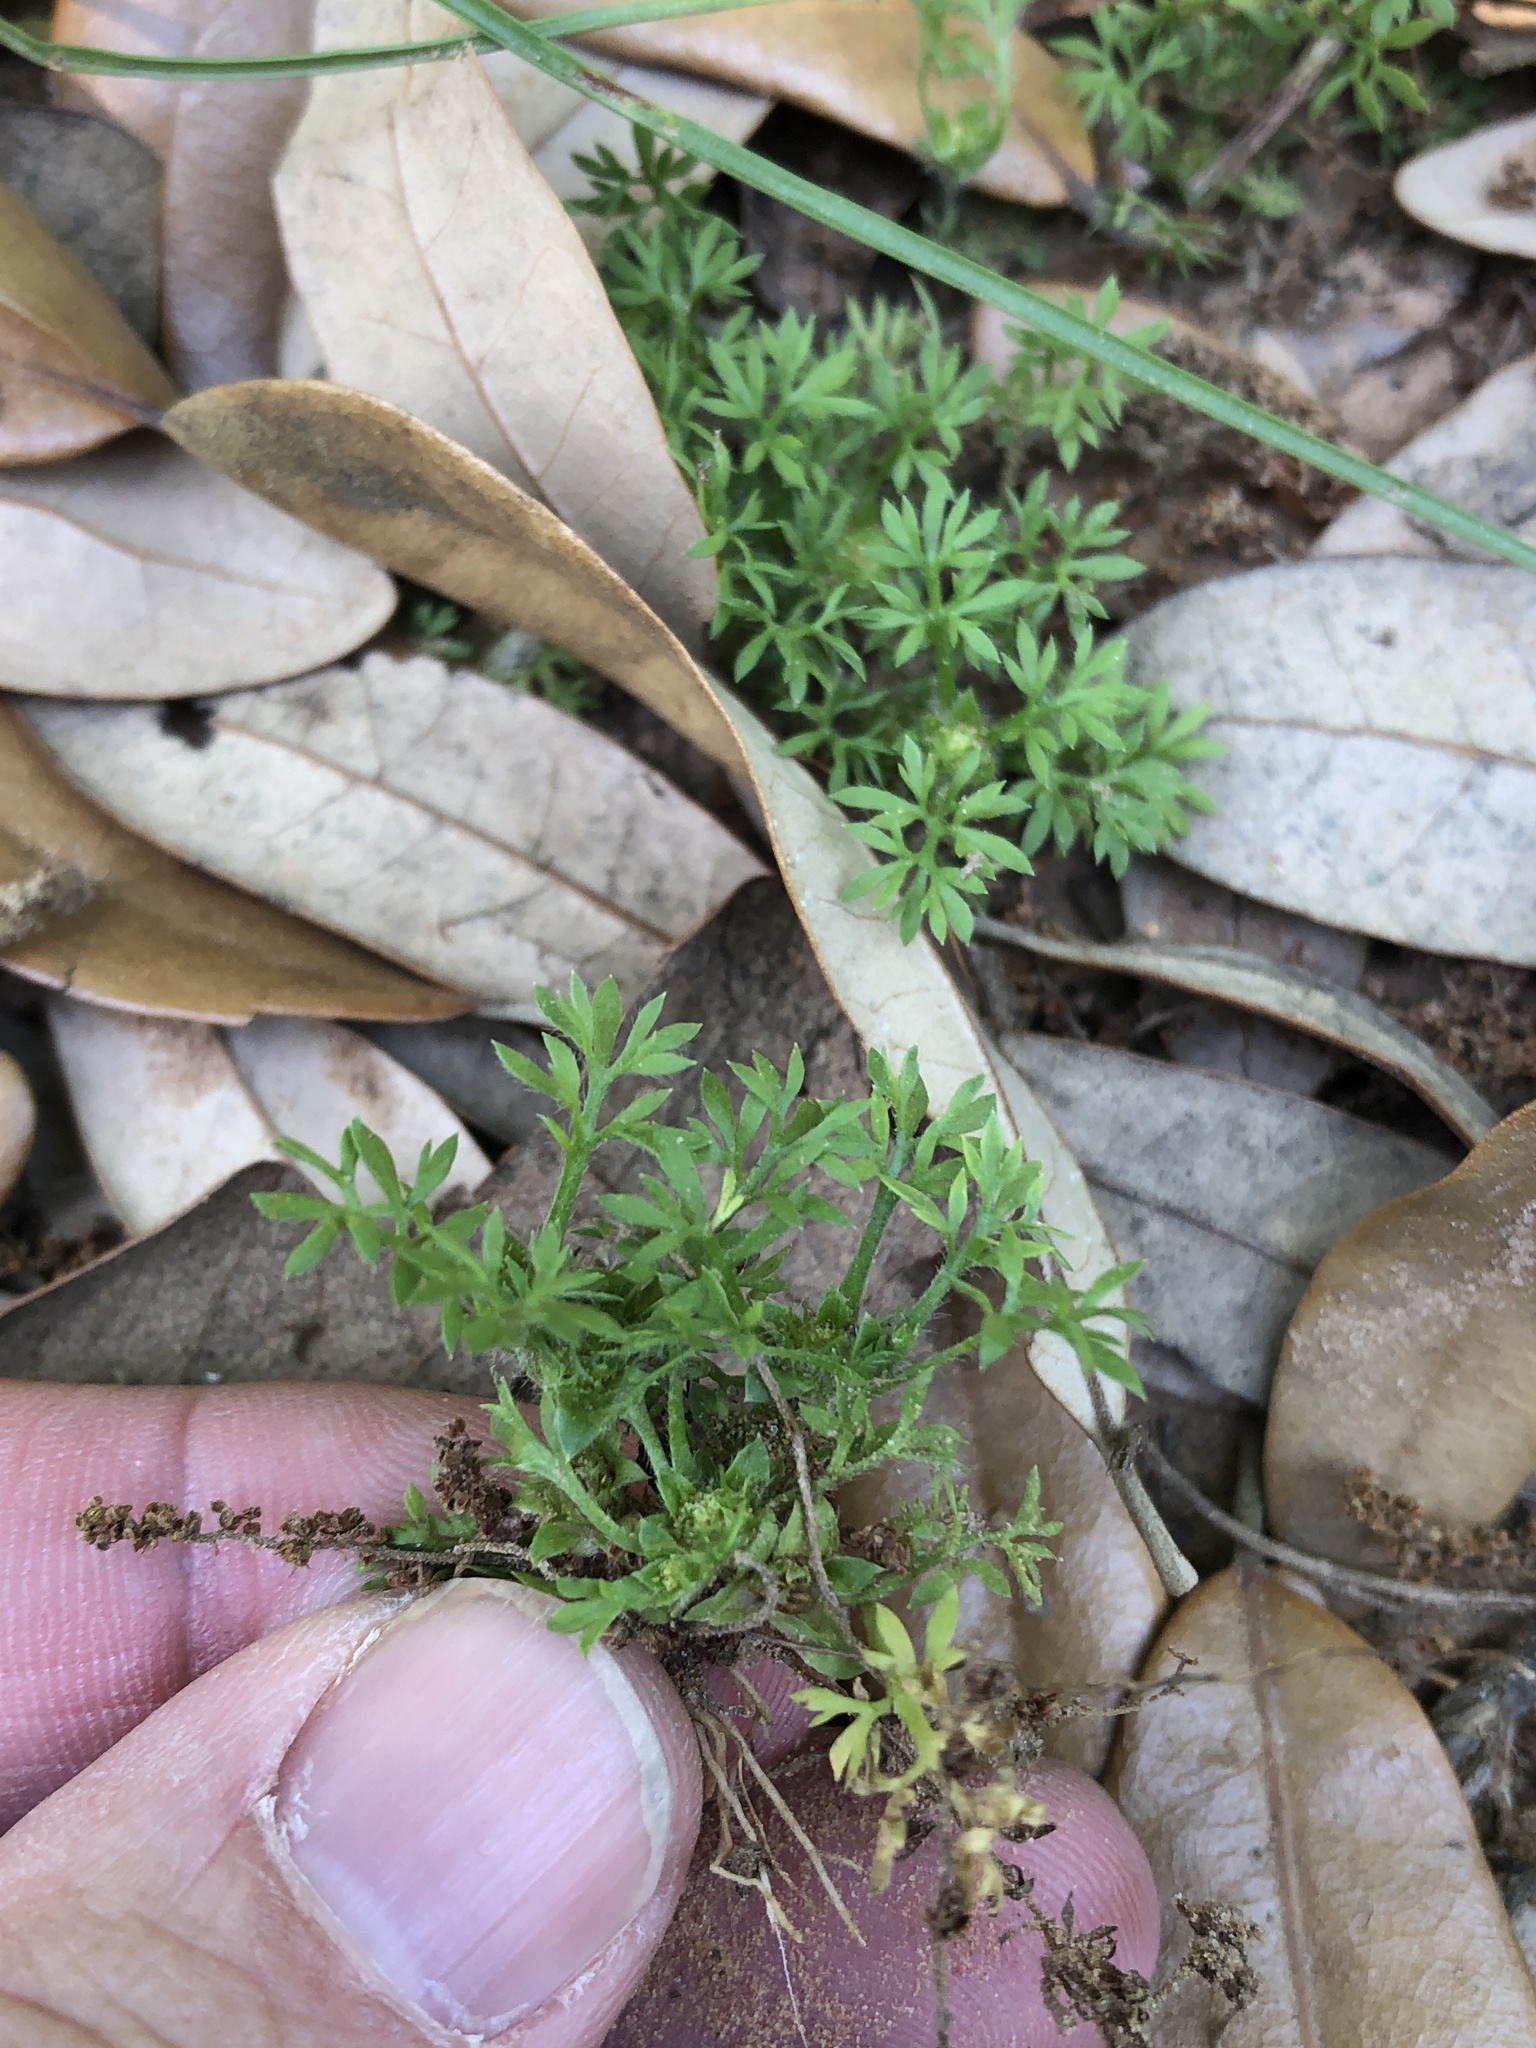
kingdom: Plantae
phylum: Tracheophyta
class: Magnoliopsida
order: Asterales
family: Asteraceae
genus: Soliva
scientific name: Soliva sessilis
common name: Field burrweed
